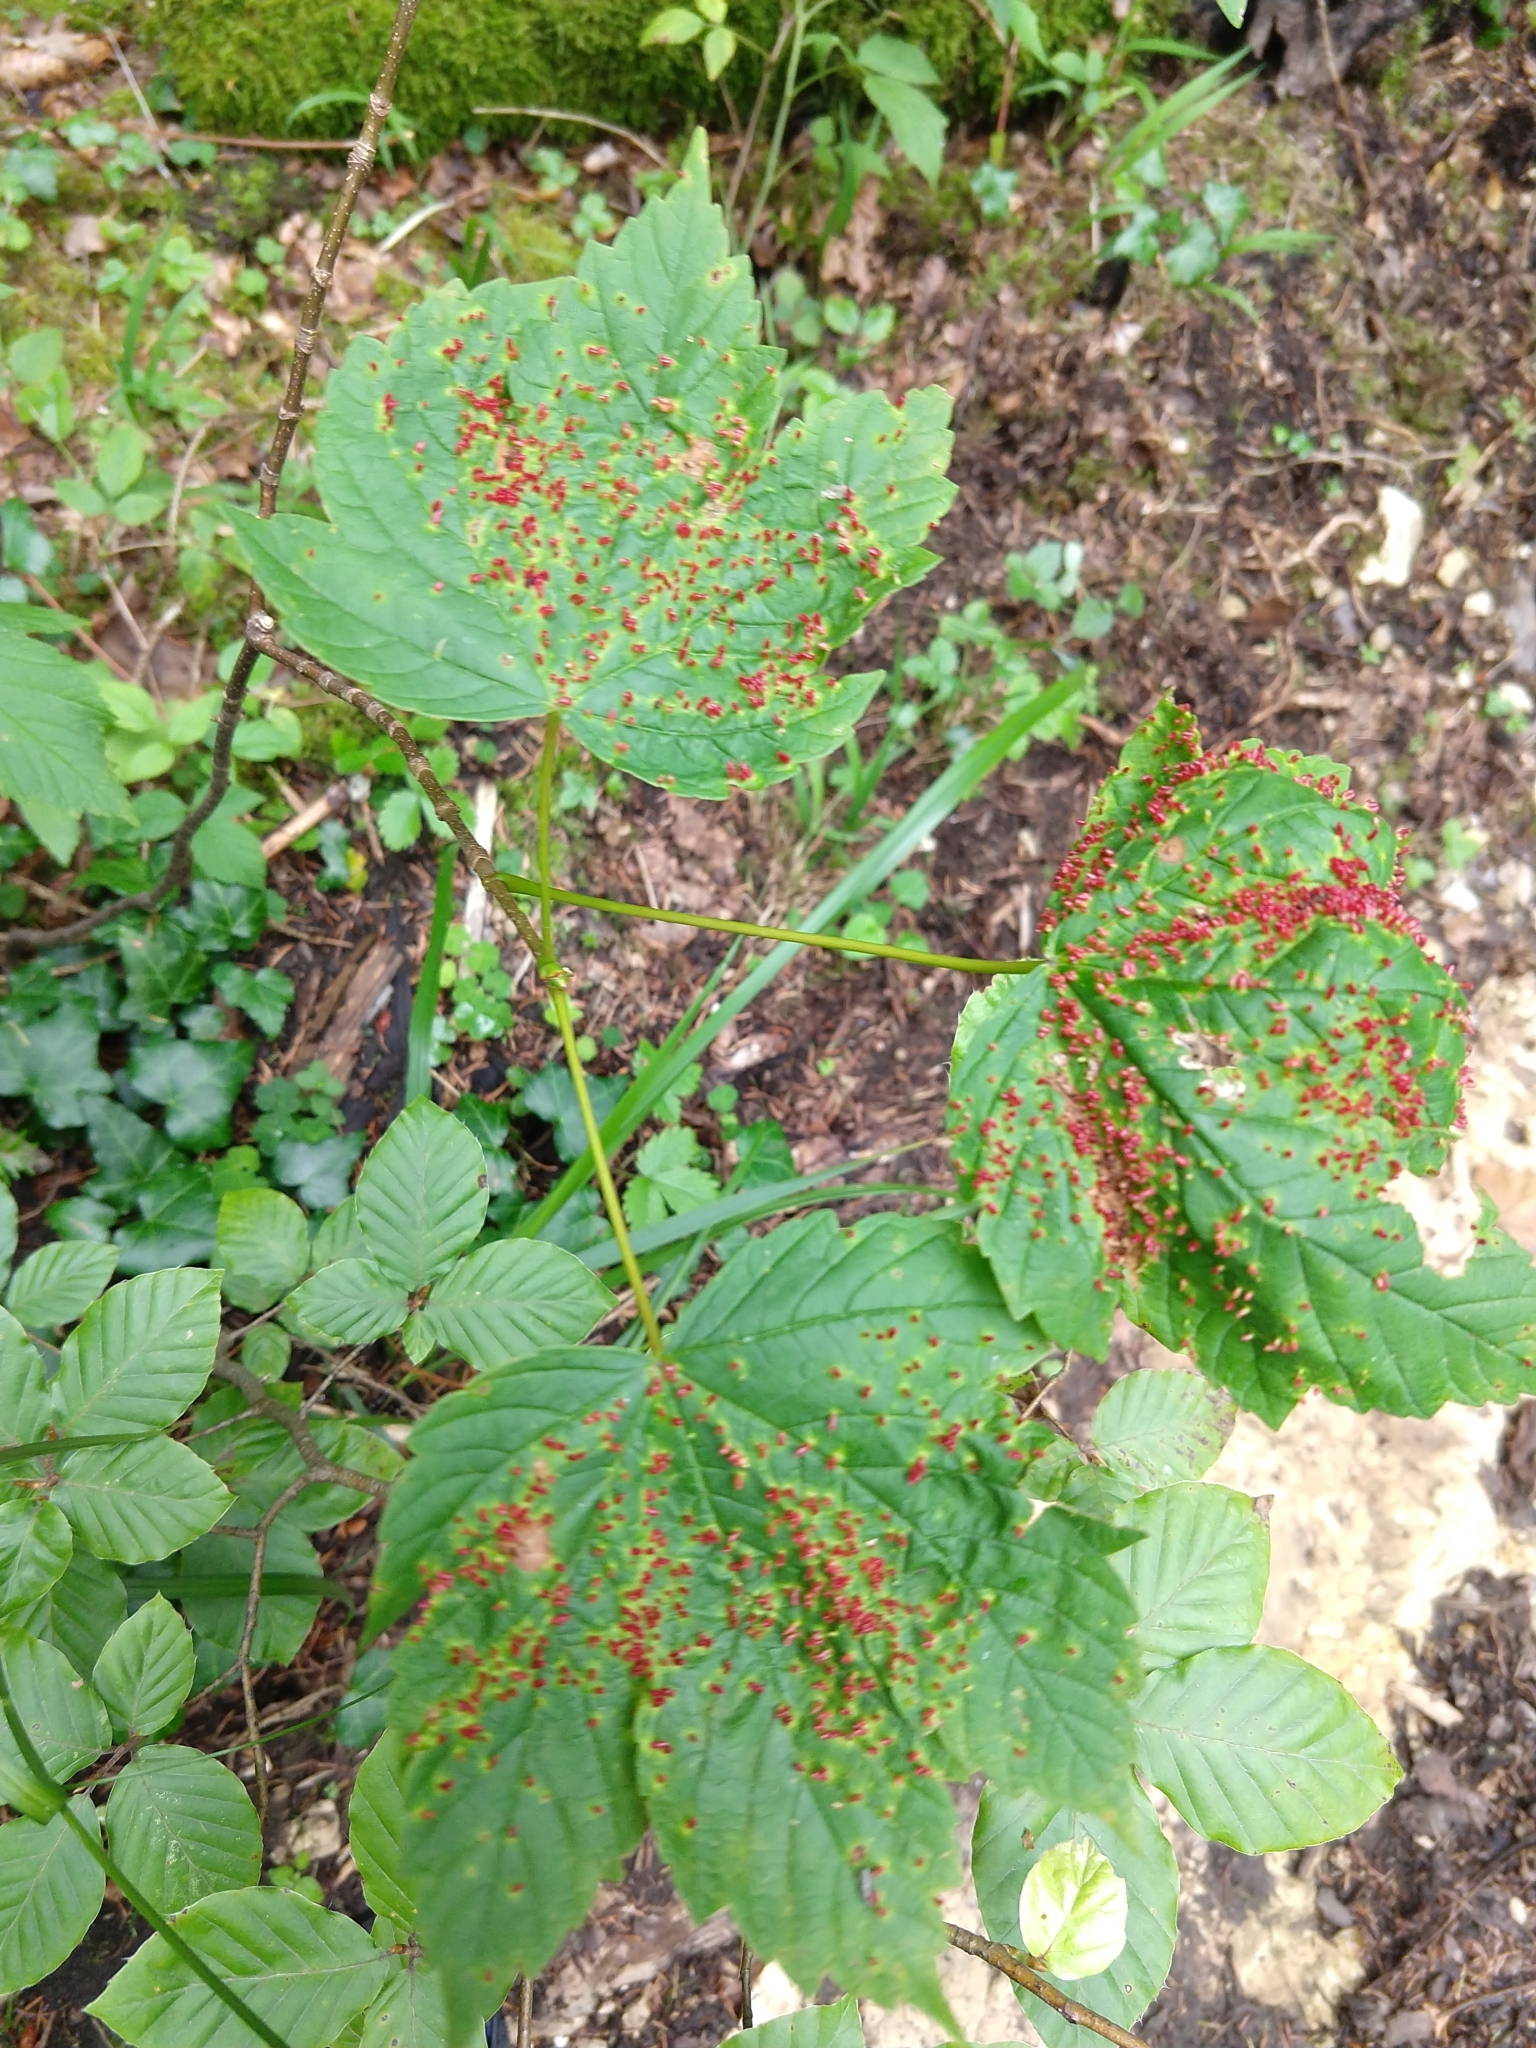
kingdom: Animalia
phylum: Arthropoda
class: Arachnida
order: Trombidiformes
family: Eriophyidae
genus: Aceria
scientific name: Aceria macrorhynchus
